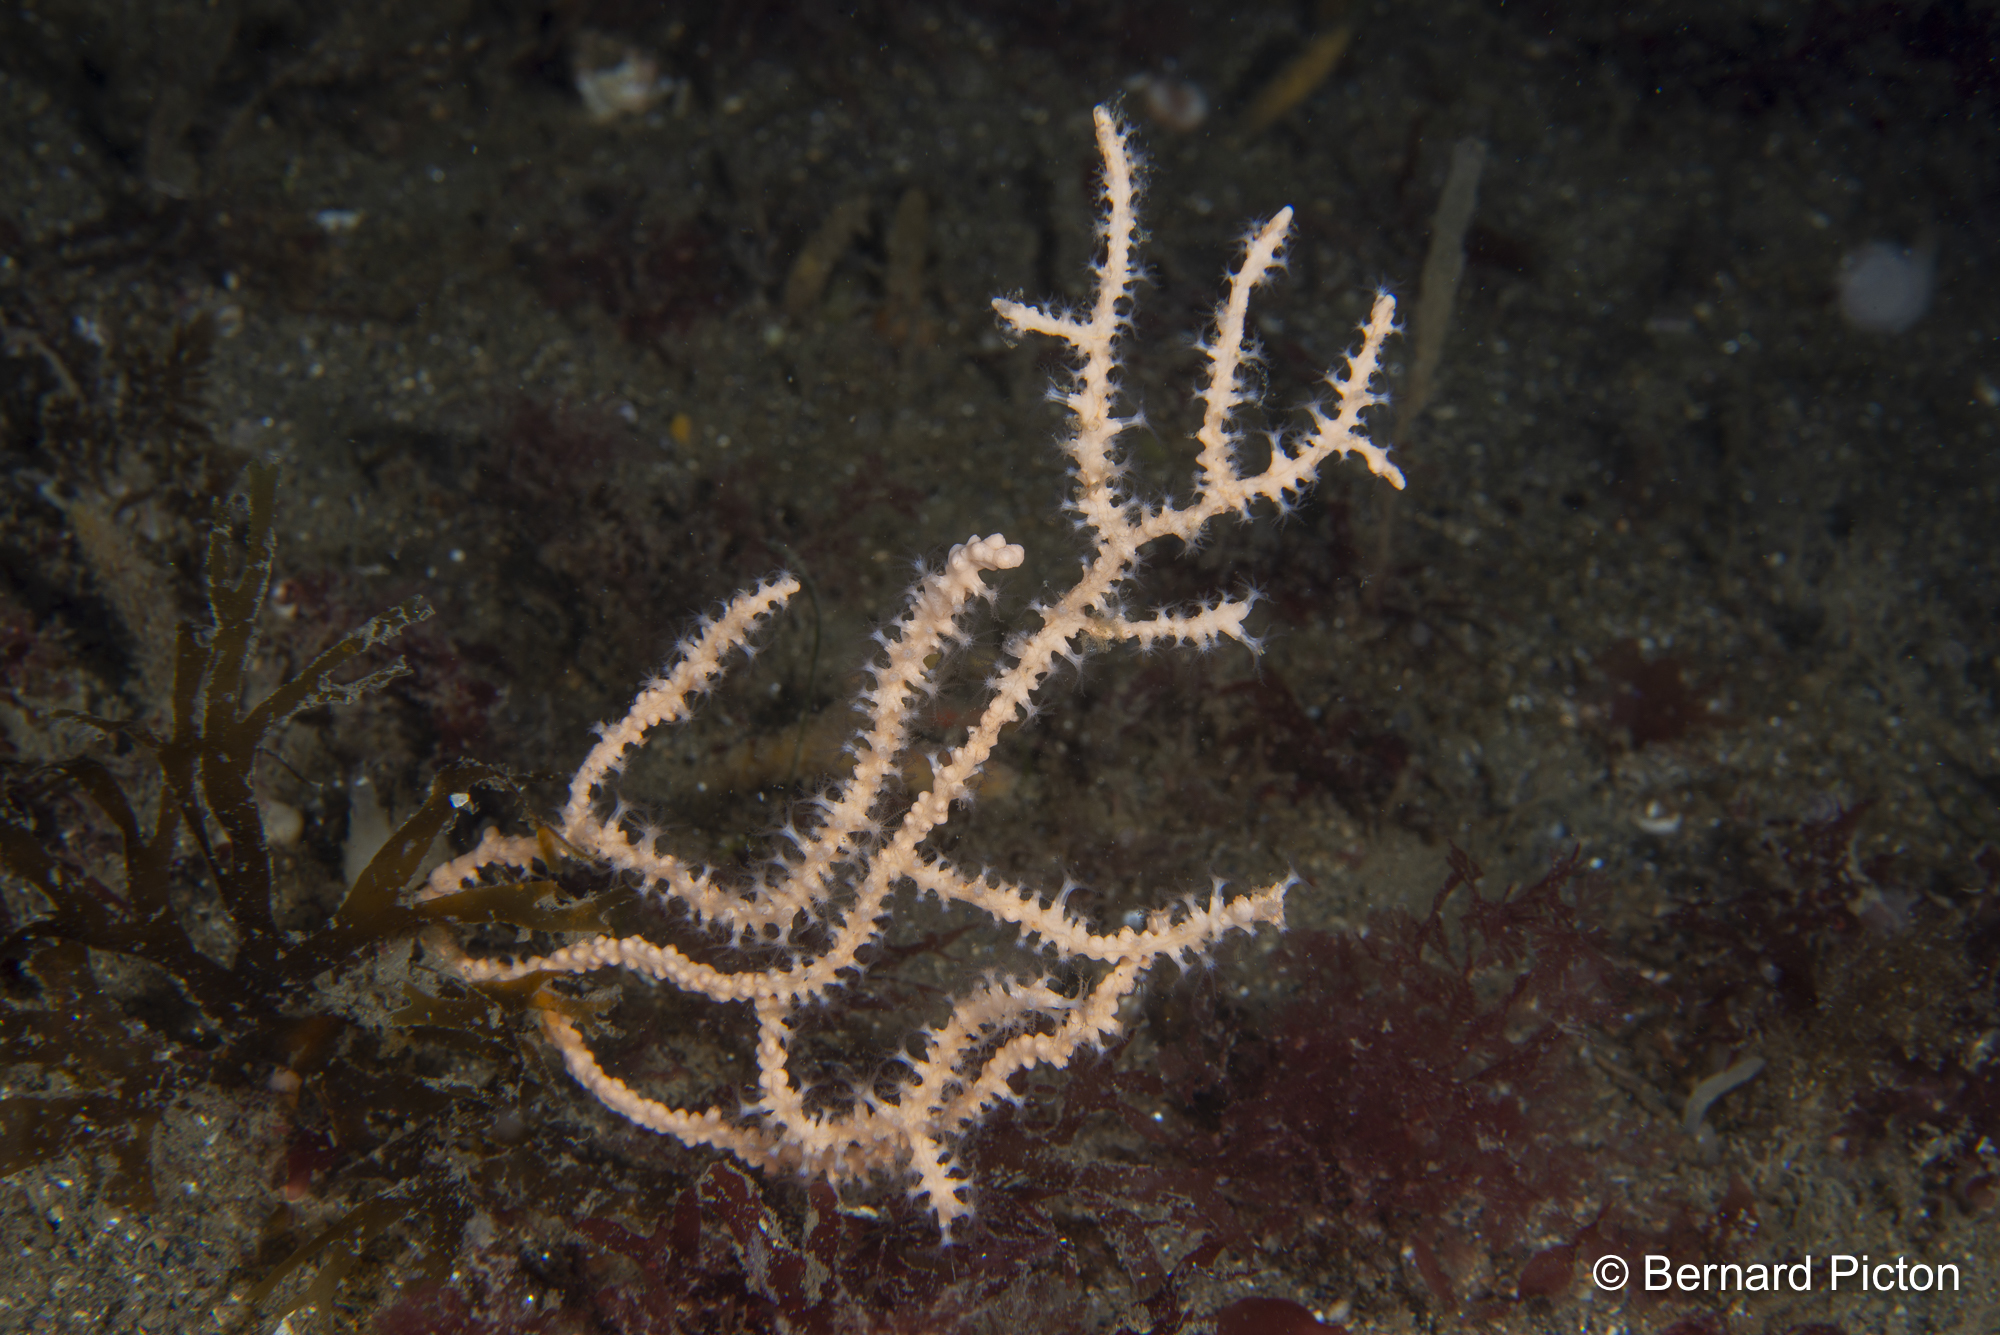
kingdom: Animalia
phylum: Cnidaria
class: Anthozoa
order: Malacalcyonacea
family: Eunicellidae
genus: Eunicella
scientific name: Eunicella verrucosa
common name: Pink sea-fan
